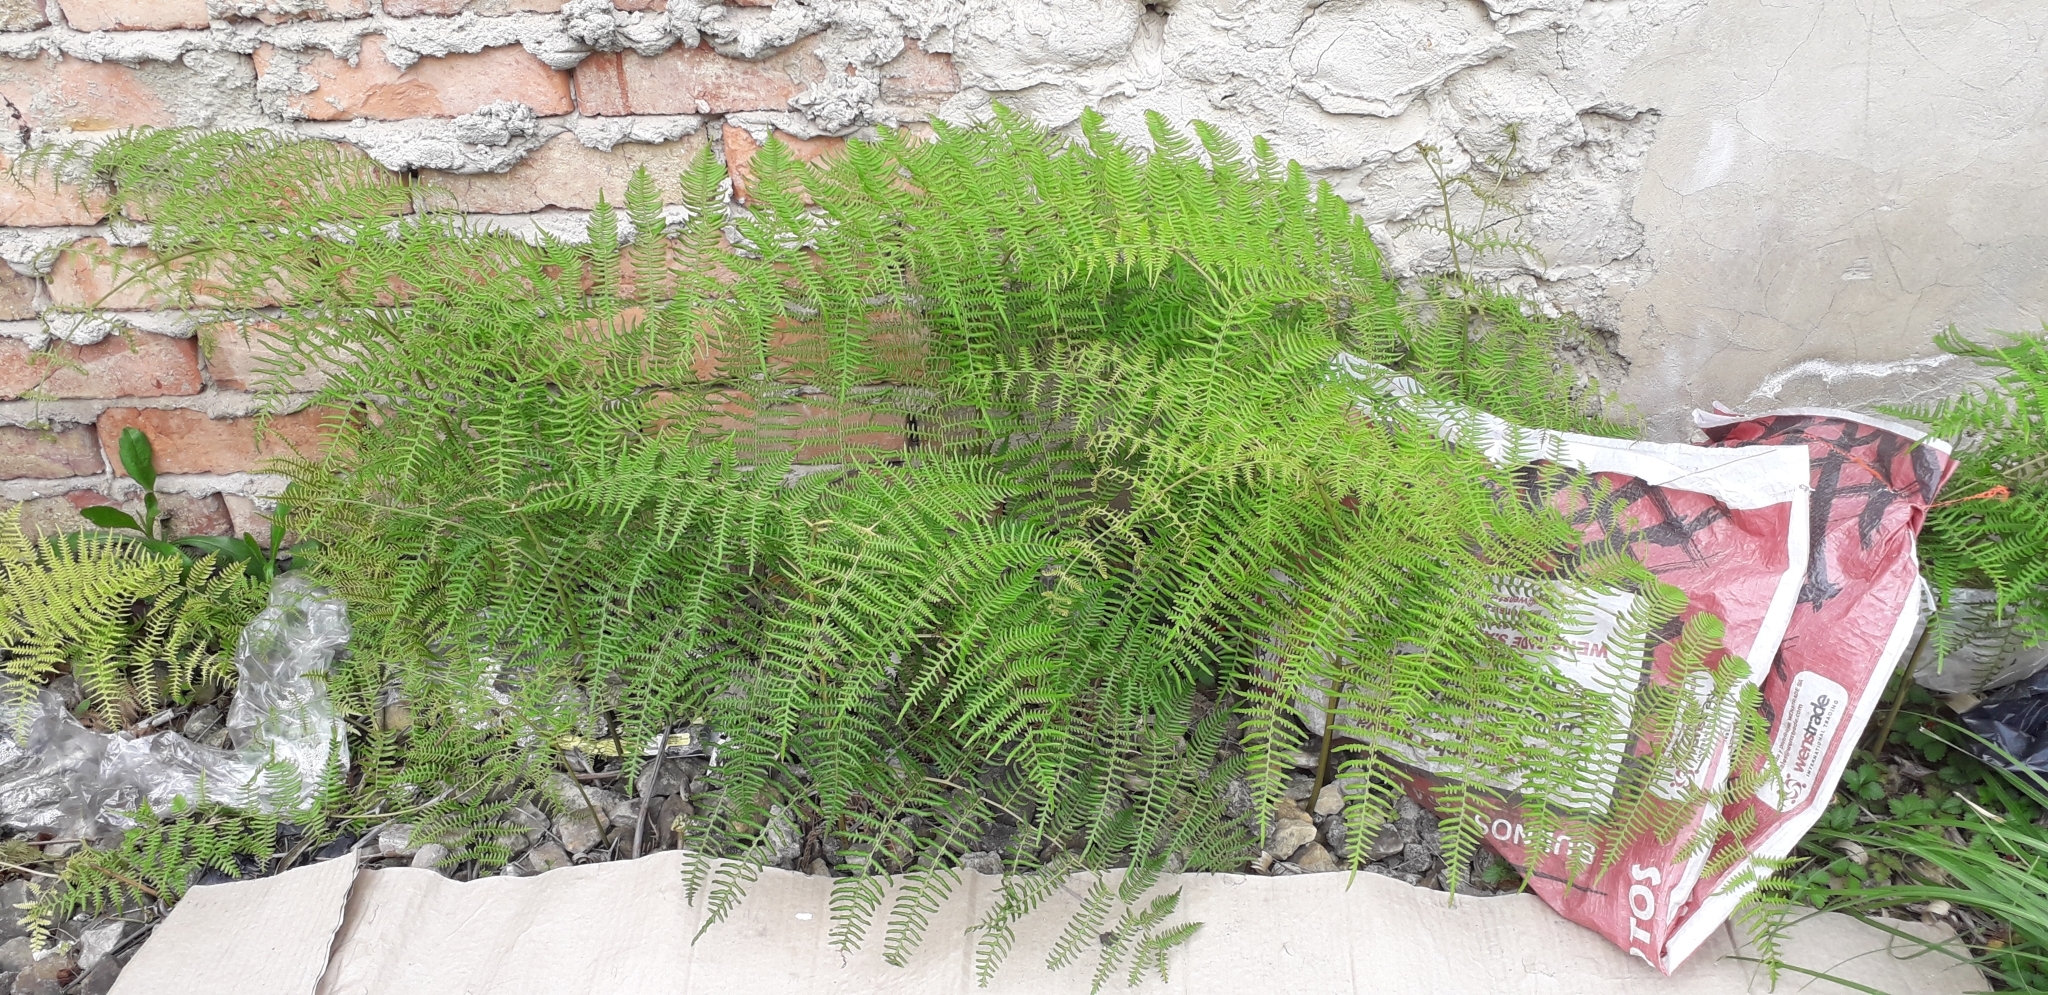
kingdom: Plantae
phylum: Tracheophyta
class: Polypodiopsida
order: Polypodiales
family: Dennstaedtiaceae
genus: Pteridium
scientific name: Pteridium esculentum
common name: Bracken fern
